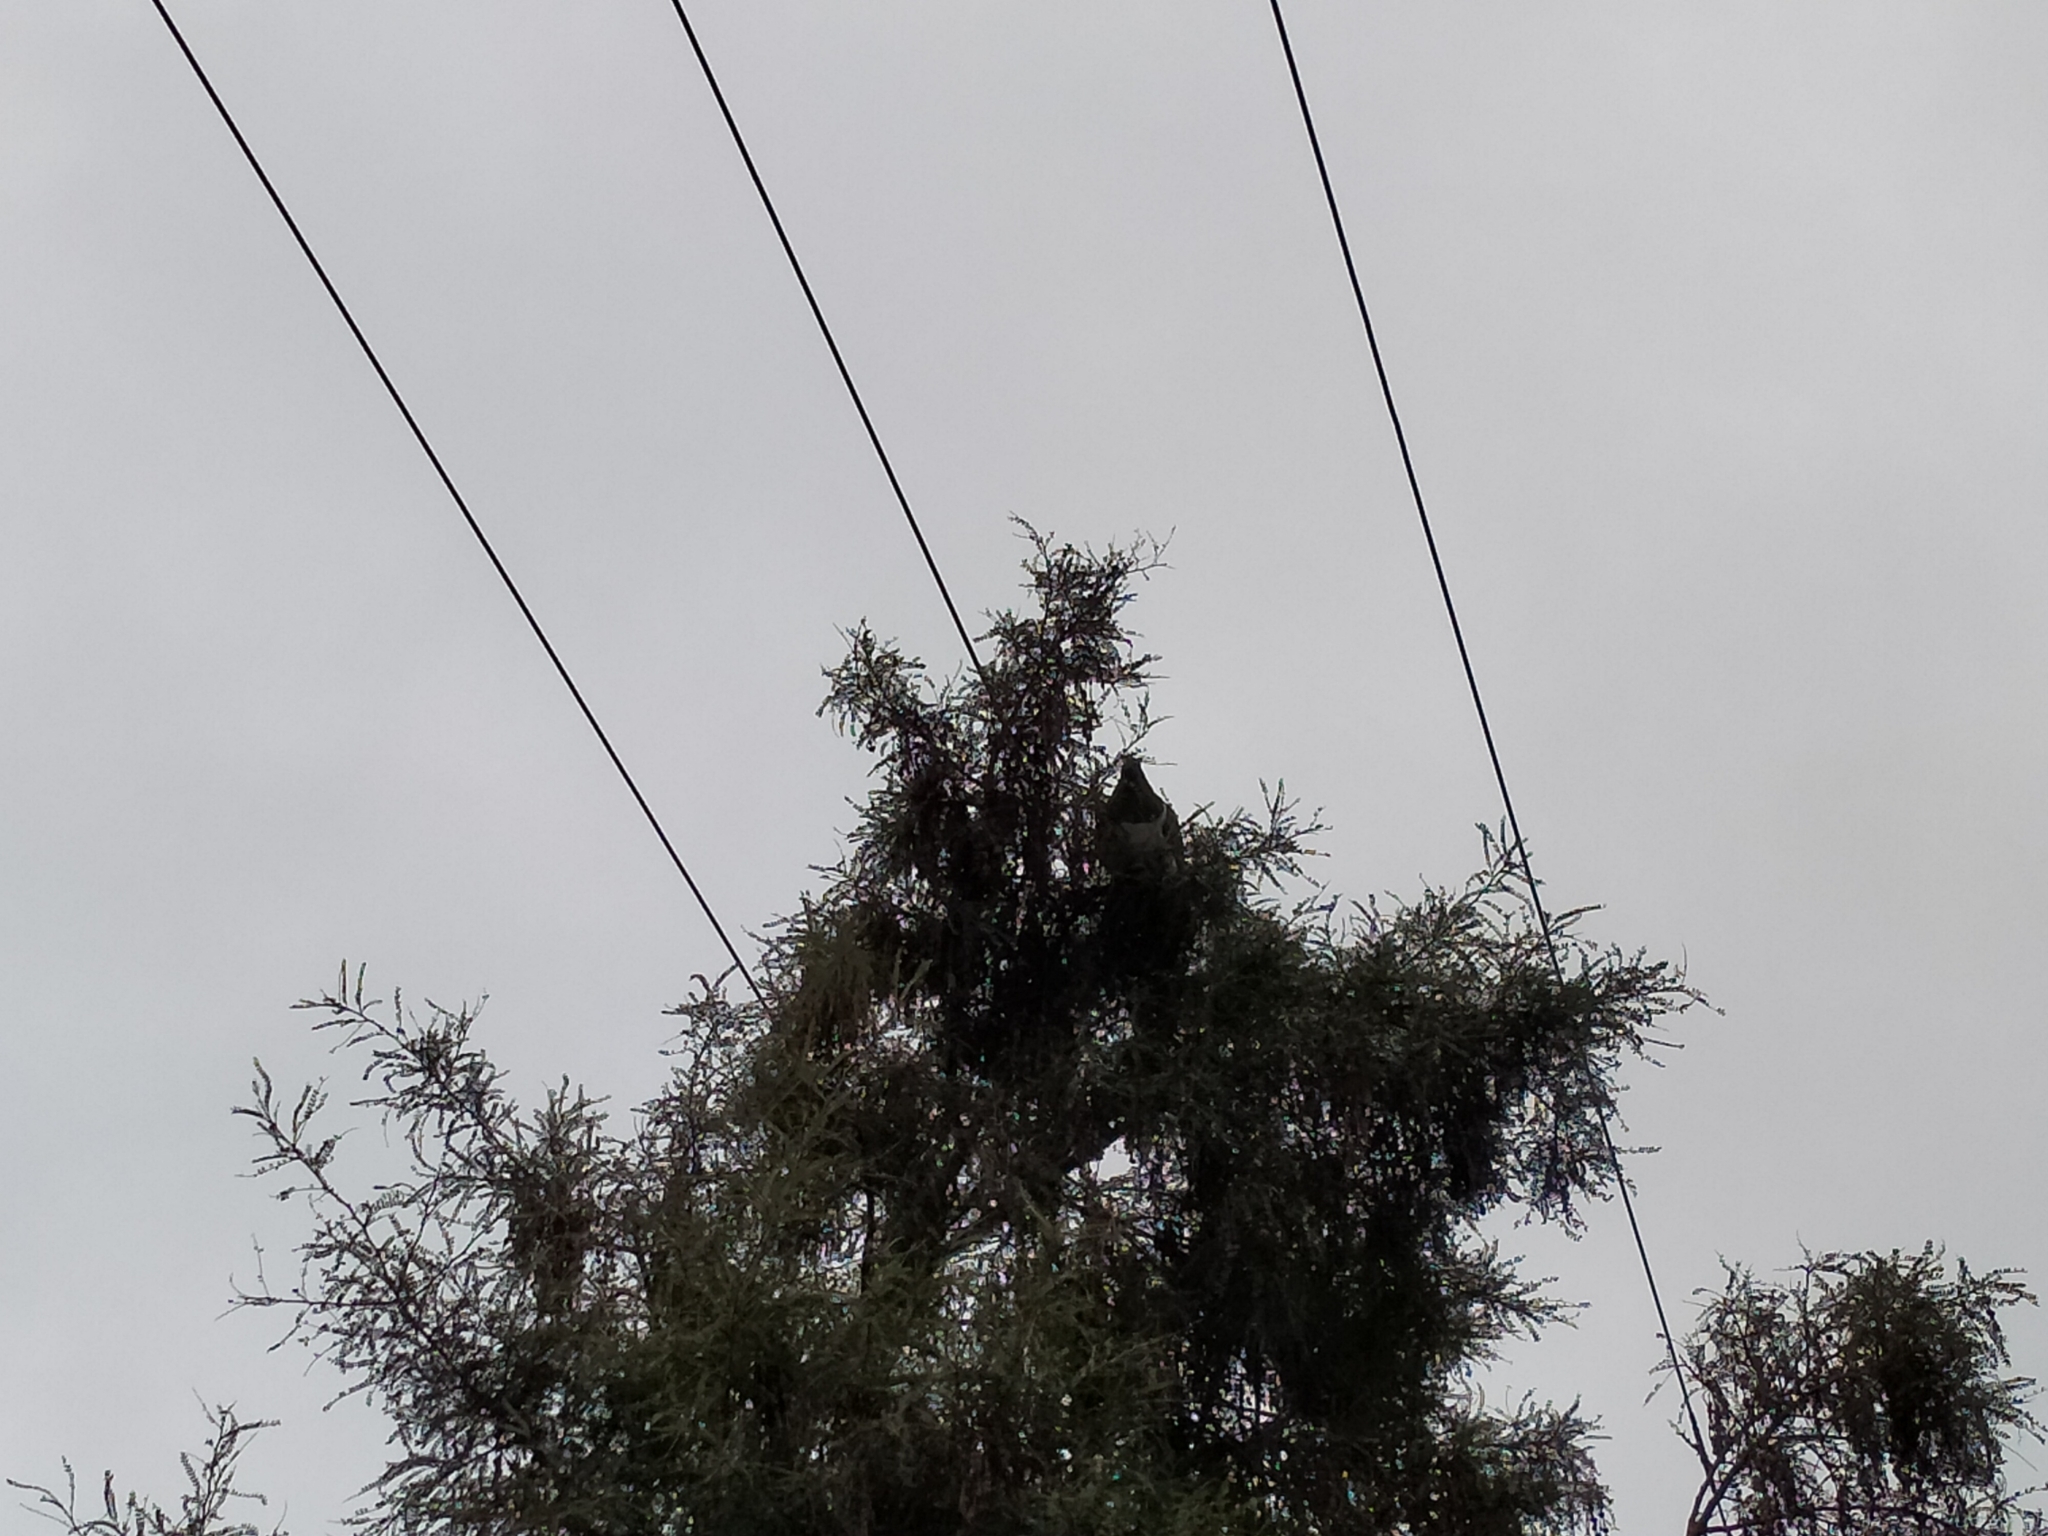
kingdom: Animalia
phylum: Chordata
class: Aves
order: Columbiformes
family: Columbidae
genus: Hemiphaga
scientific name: Hemiphaga novaeseelandiae
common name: New zealand pigeon
